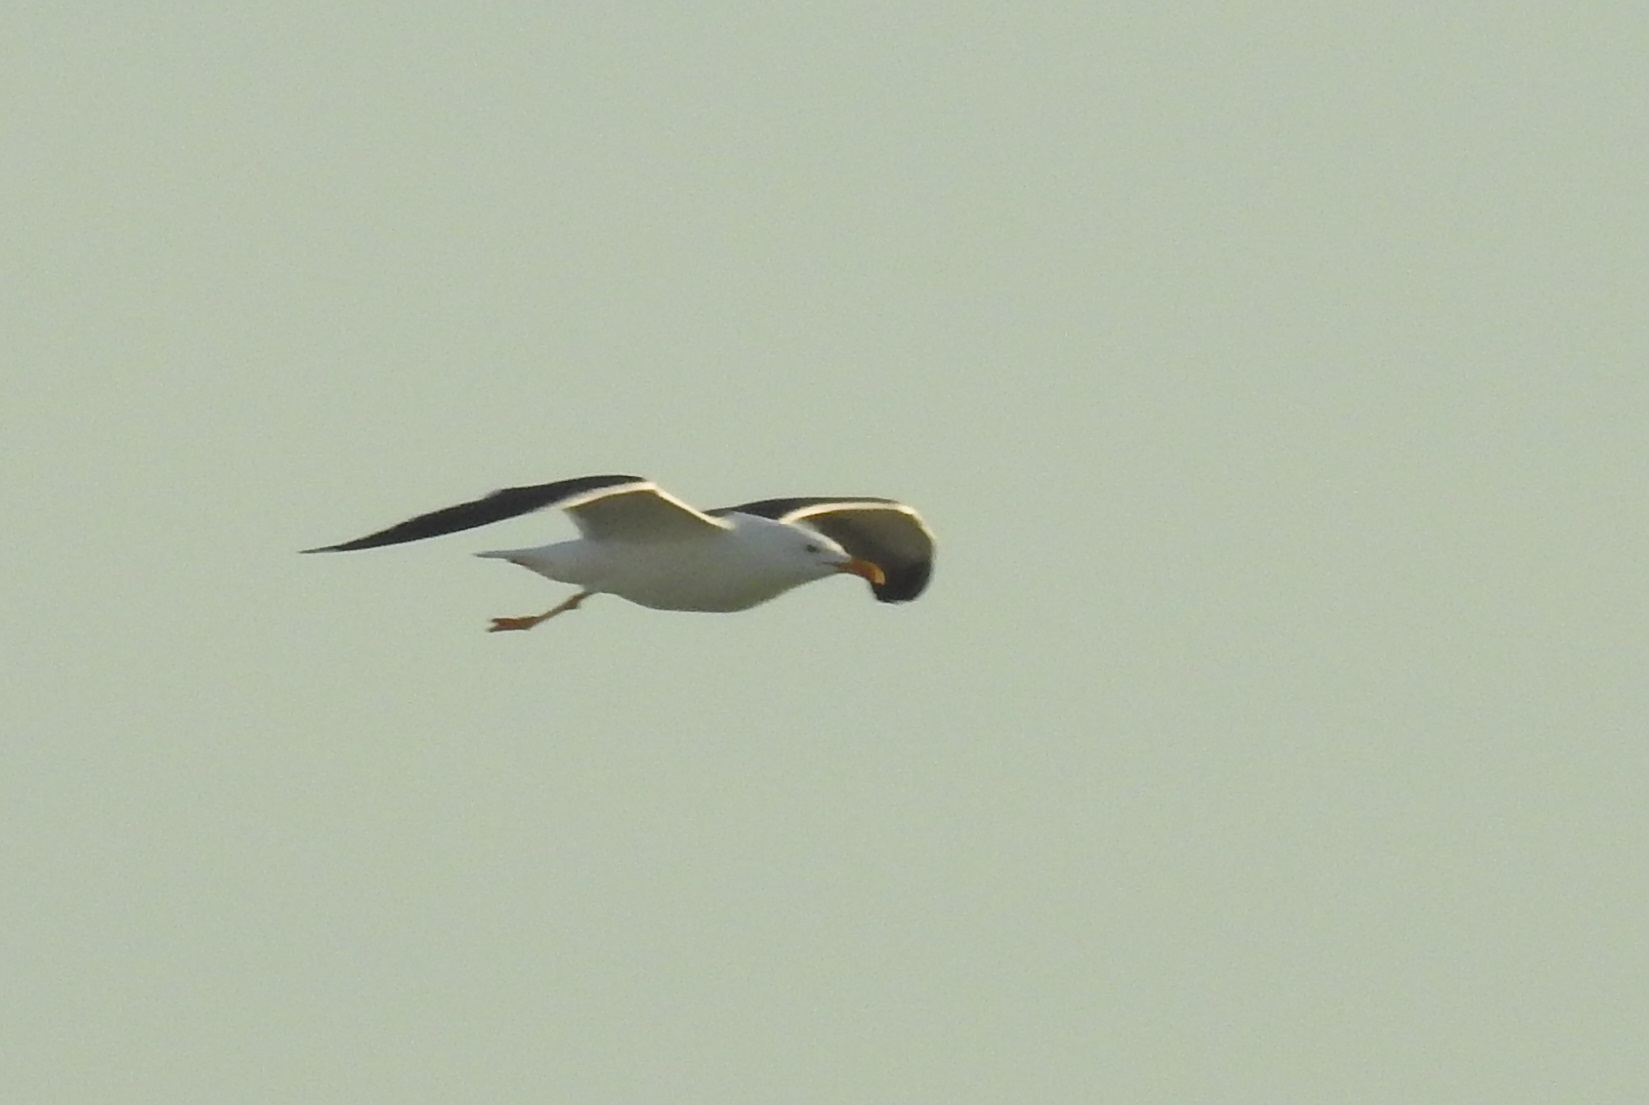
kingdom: Animalia
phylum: Chordata
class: Aves
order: Charadriiformes
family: Laridae
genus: Larus
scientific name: Larus fuscus
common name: Lesser black-backed gull
